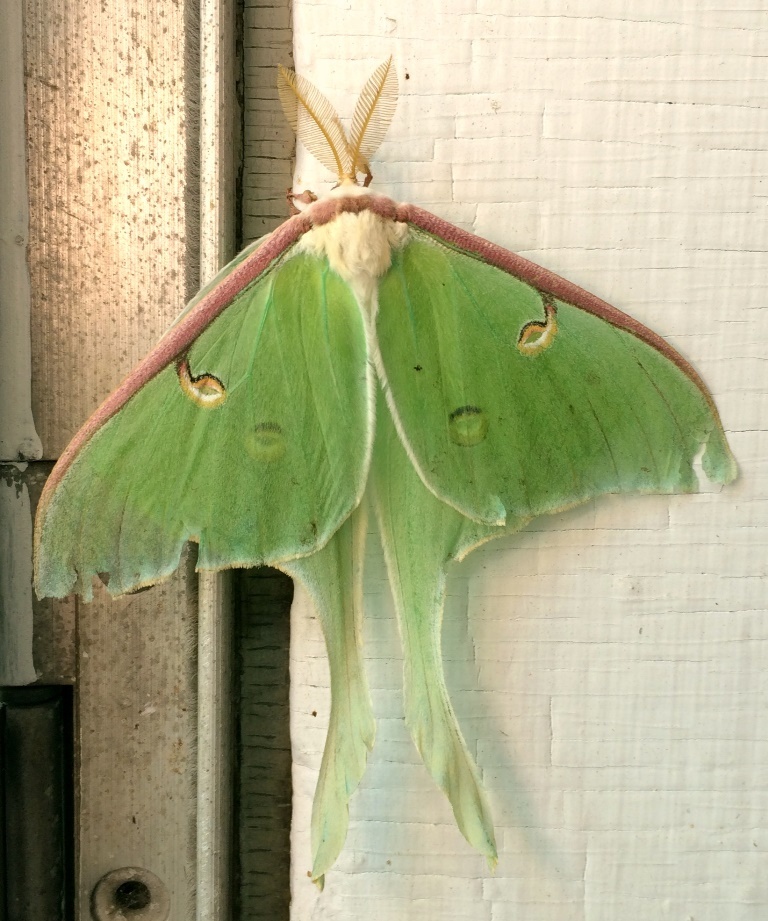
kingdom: Animalia
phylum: Arthropoda
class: Insecta
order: Lepidoptera
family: Saturniidae
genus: Actias
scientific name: Actias luna
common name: Luna moth
